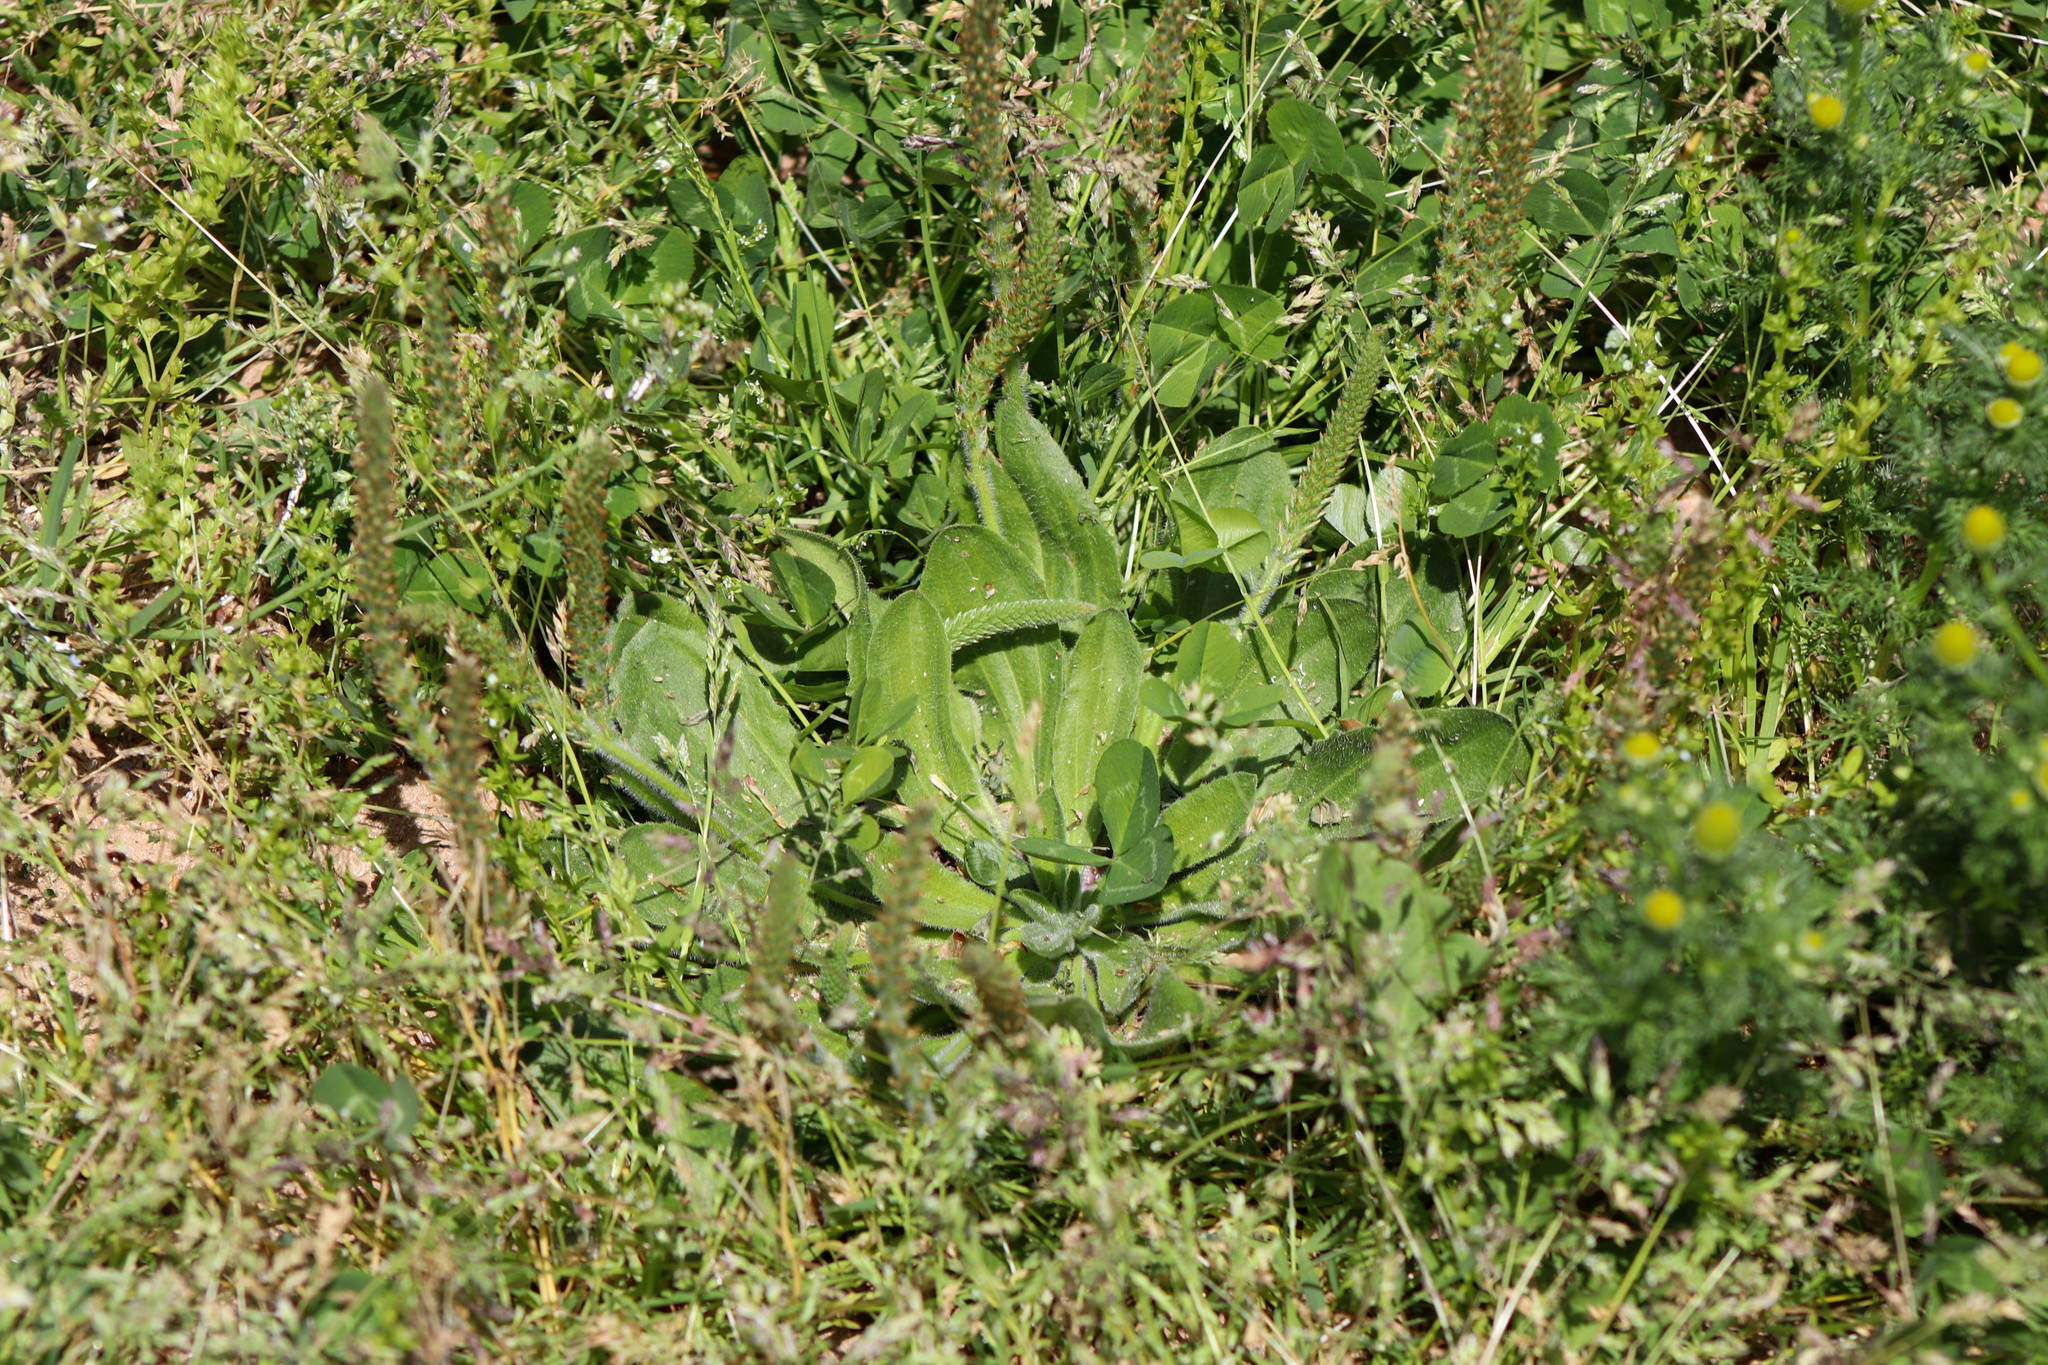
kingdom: Plantae
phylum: Tracheophyta
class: Magnoliopsida
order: Lamiales
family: Plantaginaceae
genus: Plantago
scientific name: Plantago virginica
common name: Hoary plantain
